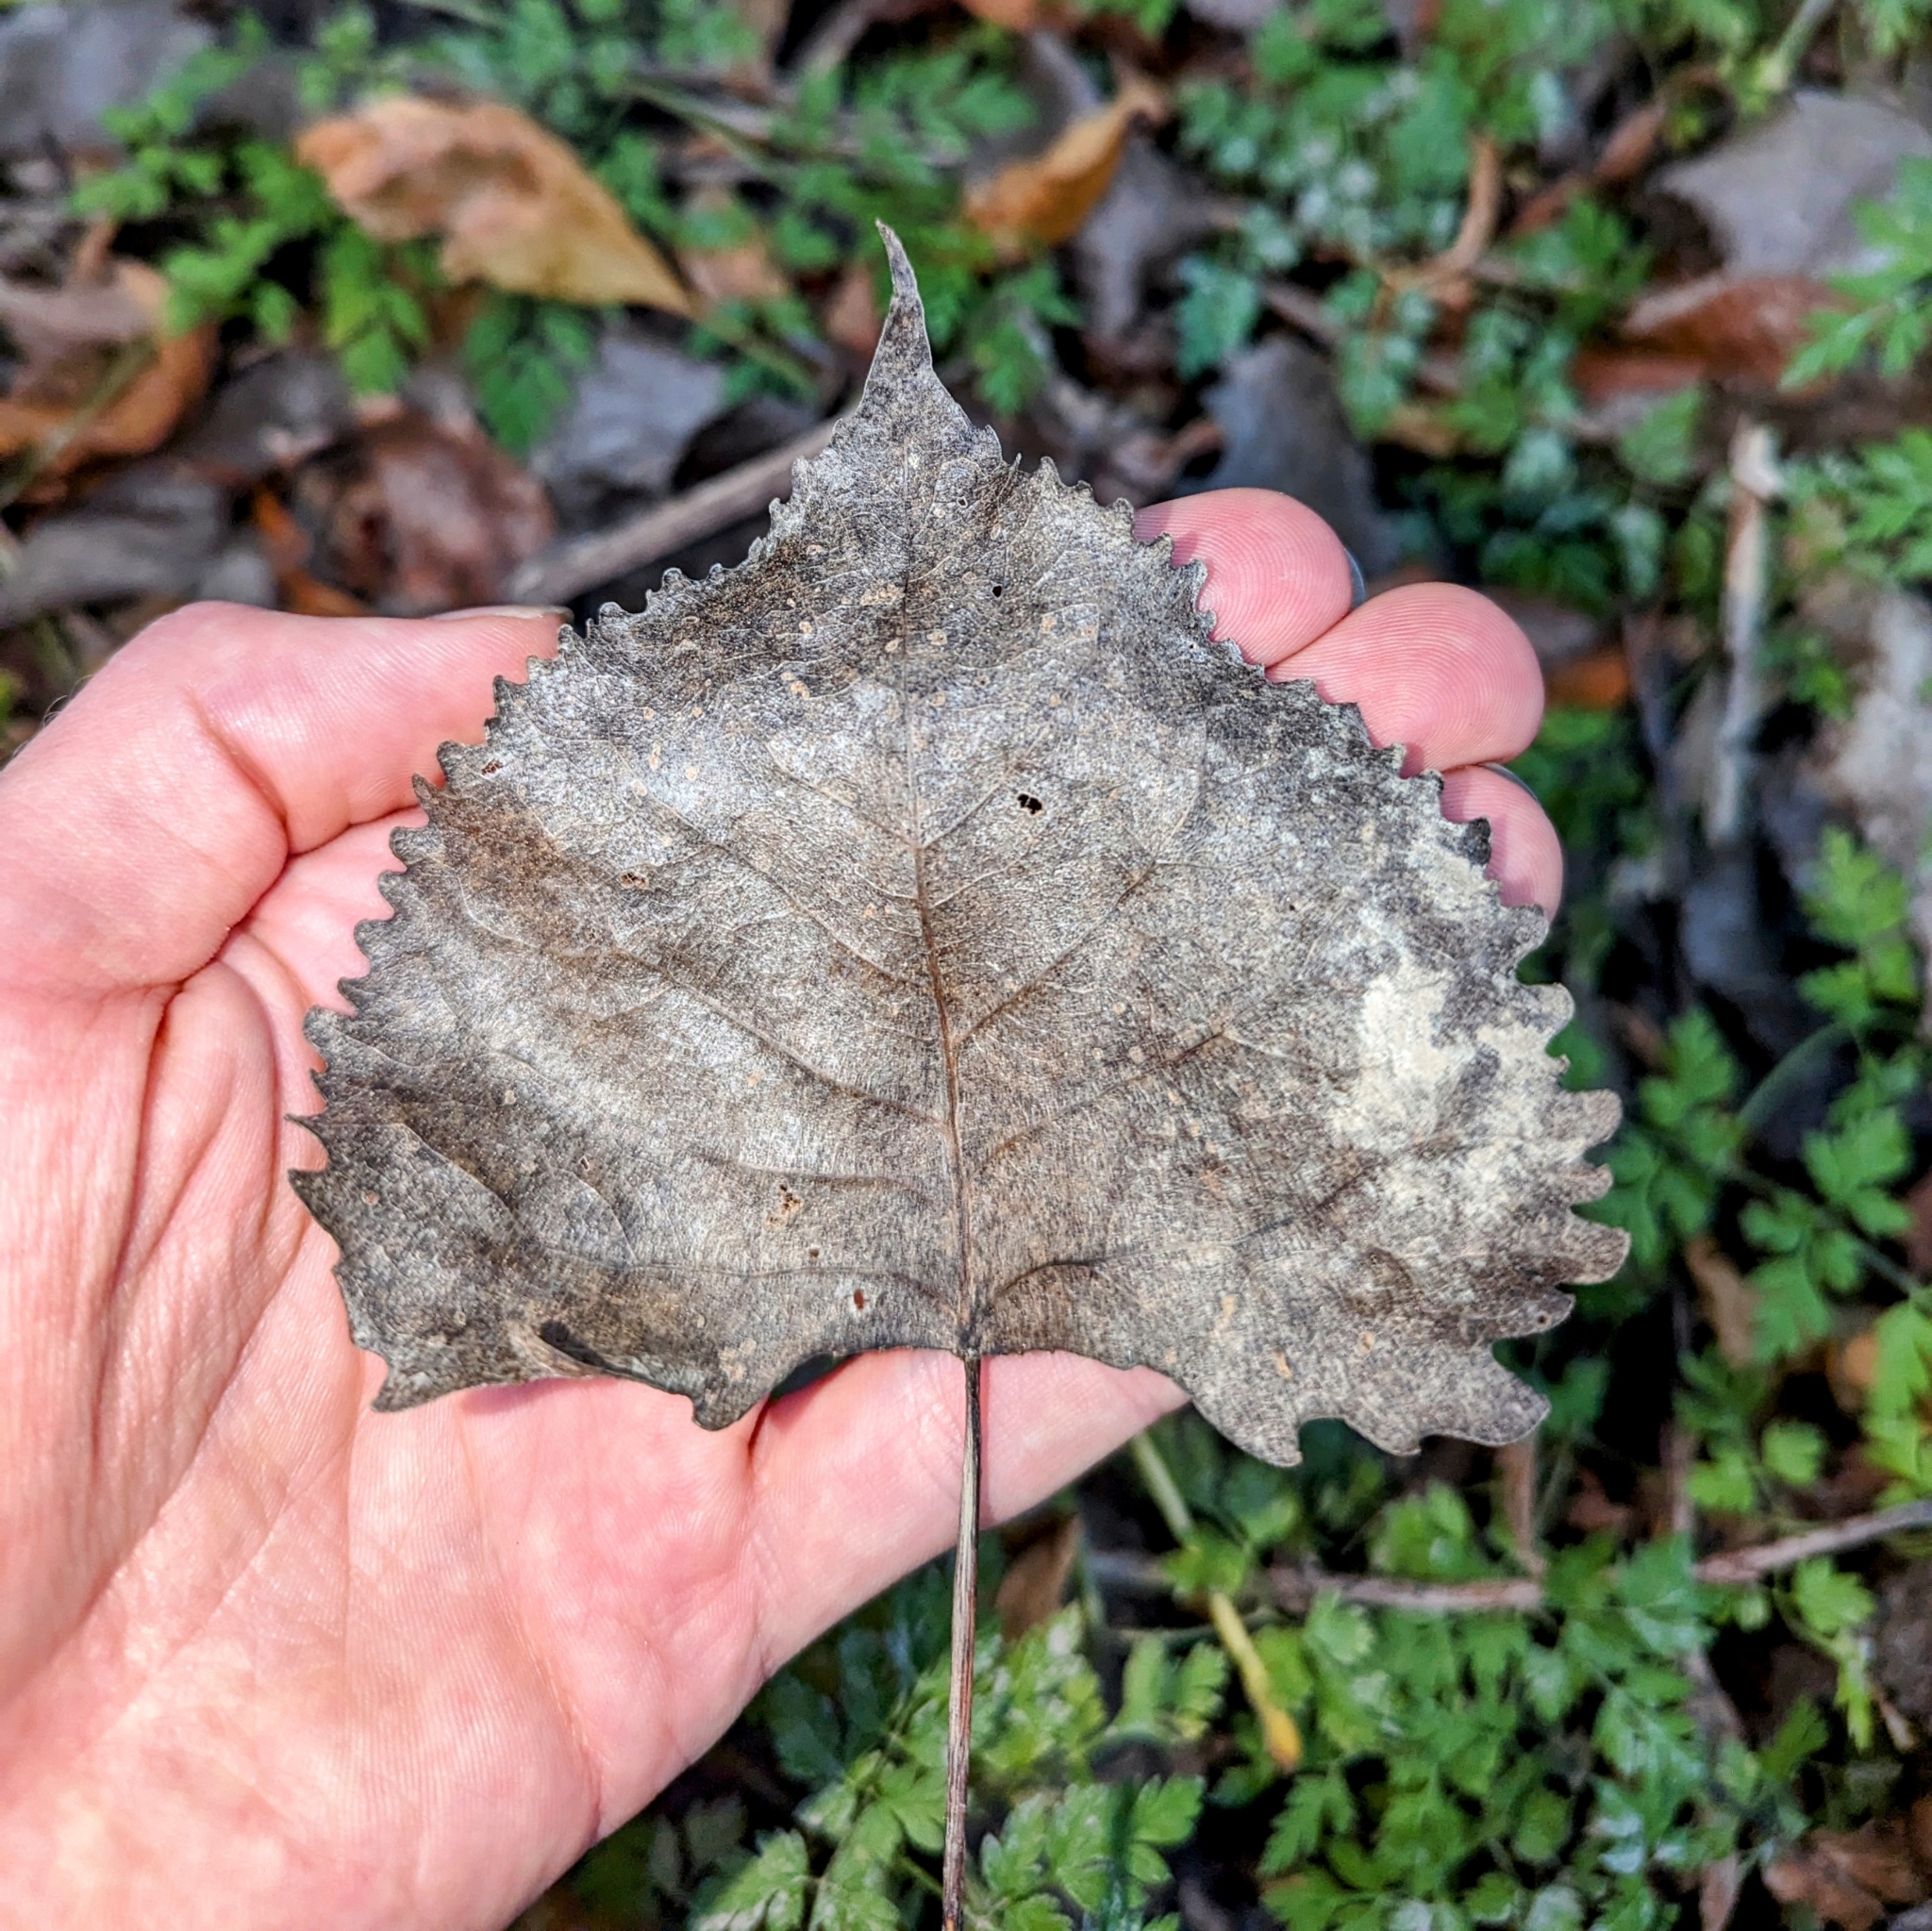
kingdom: Plantae
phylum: Tracheophyta
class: Magnoliopsida
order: Malpighiales
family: Salicaceae
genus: Populus
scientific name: Populus deltoides
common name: Eastern cottonwood
